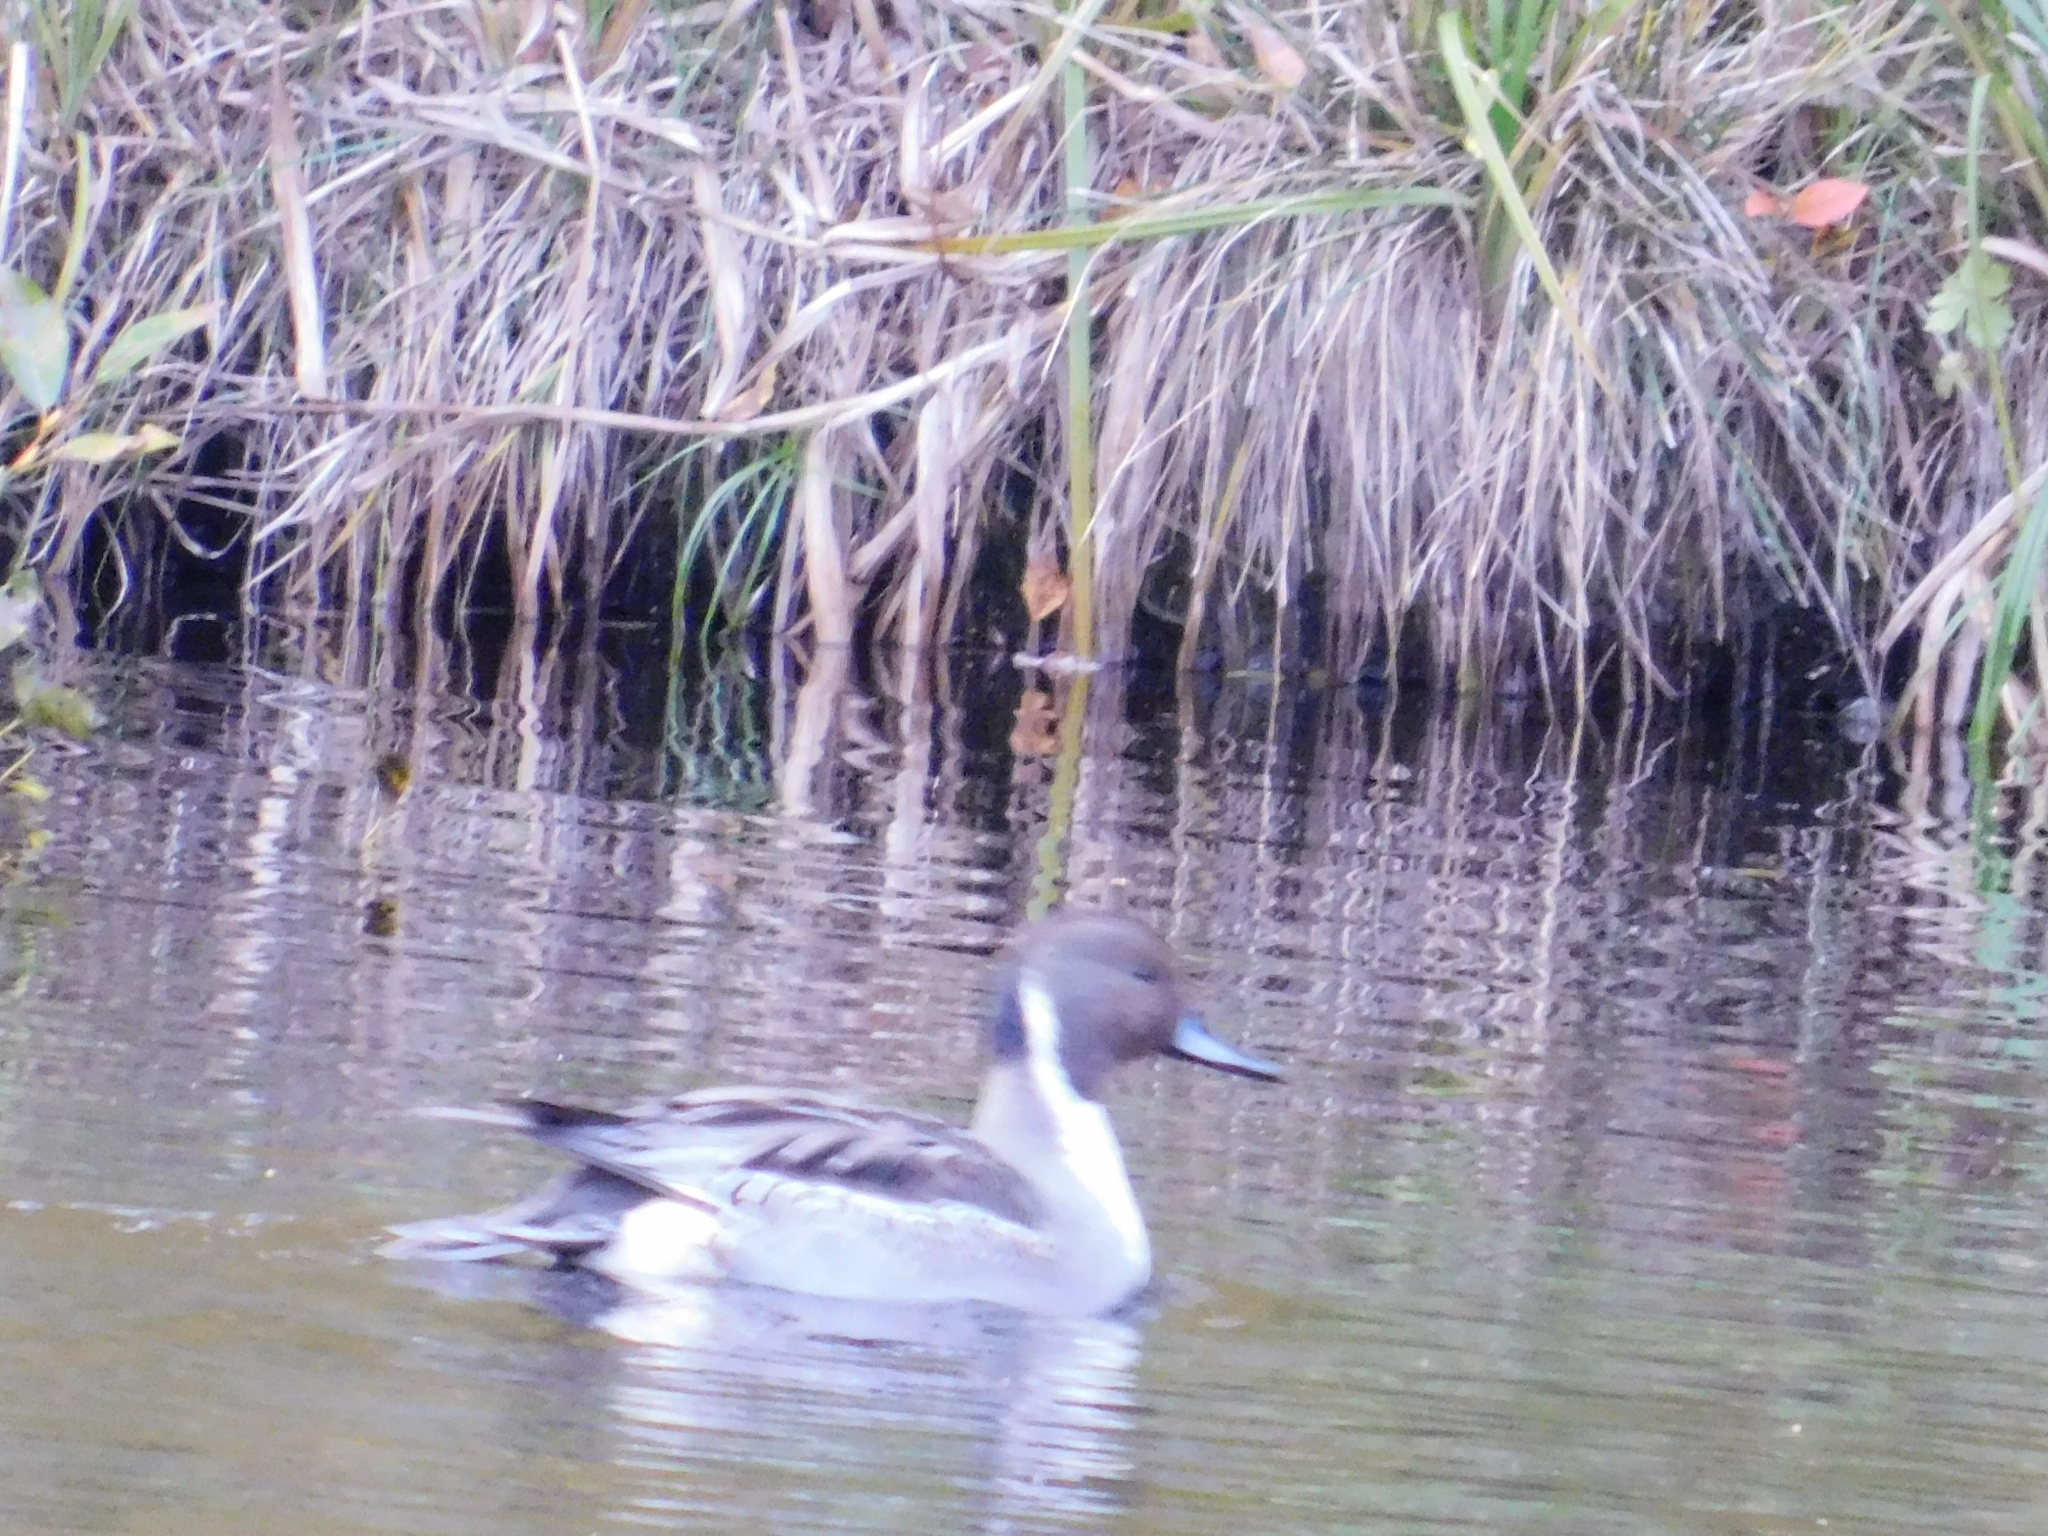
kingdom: Animalia
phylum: Chordata
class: Aves
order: Anseriformes
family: Anatidae
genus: Anas
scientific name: Anas acuta
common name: Northern pintail
